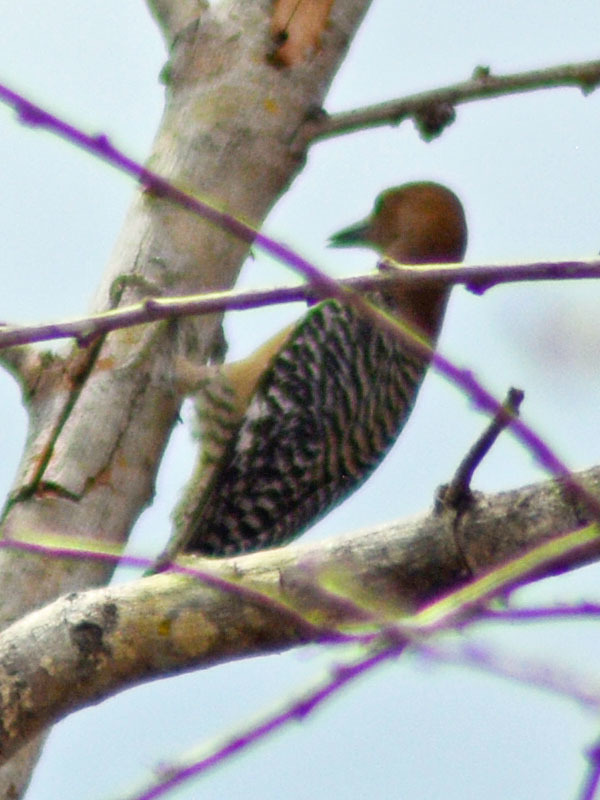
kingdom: Animalia
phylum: Chordata
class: Aves
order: Piciformes
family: Picidae
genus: Melanerpes
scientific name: Melanerpes uropygialis
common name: Gila woodpecker
